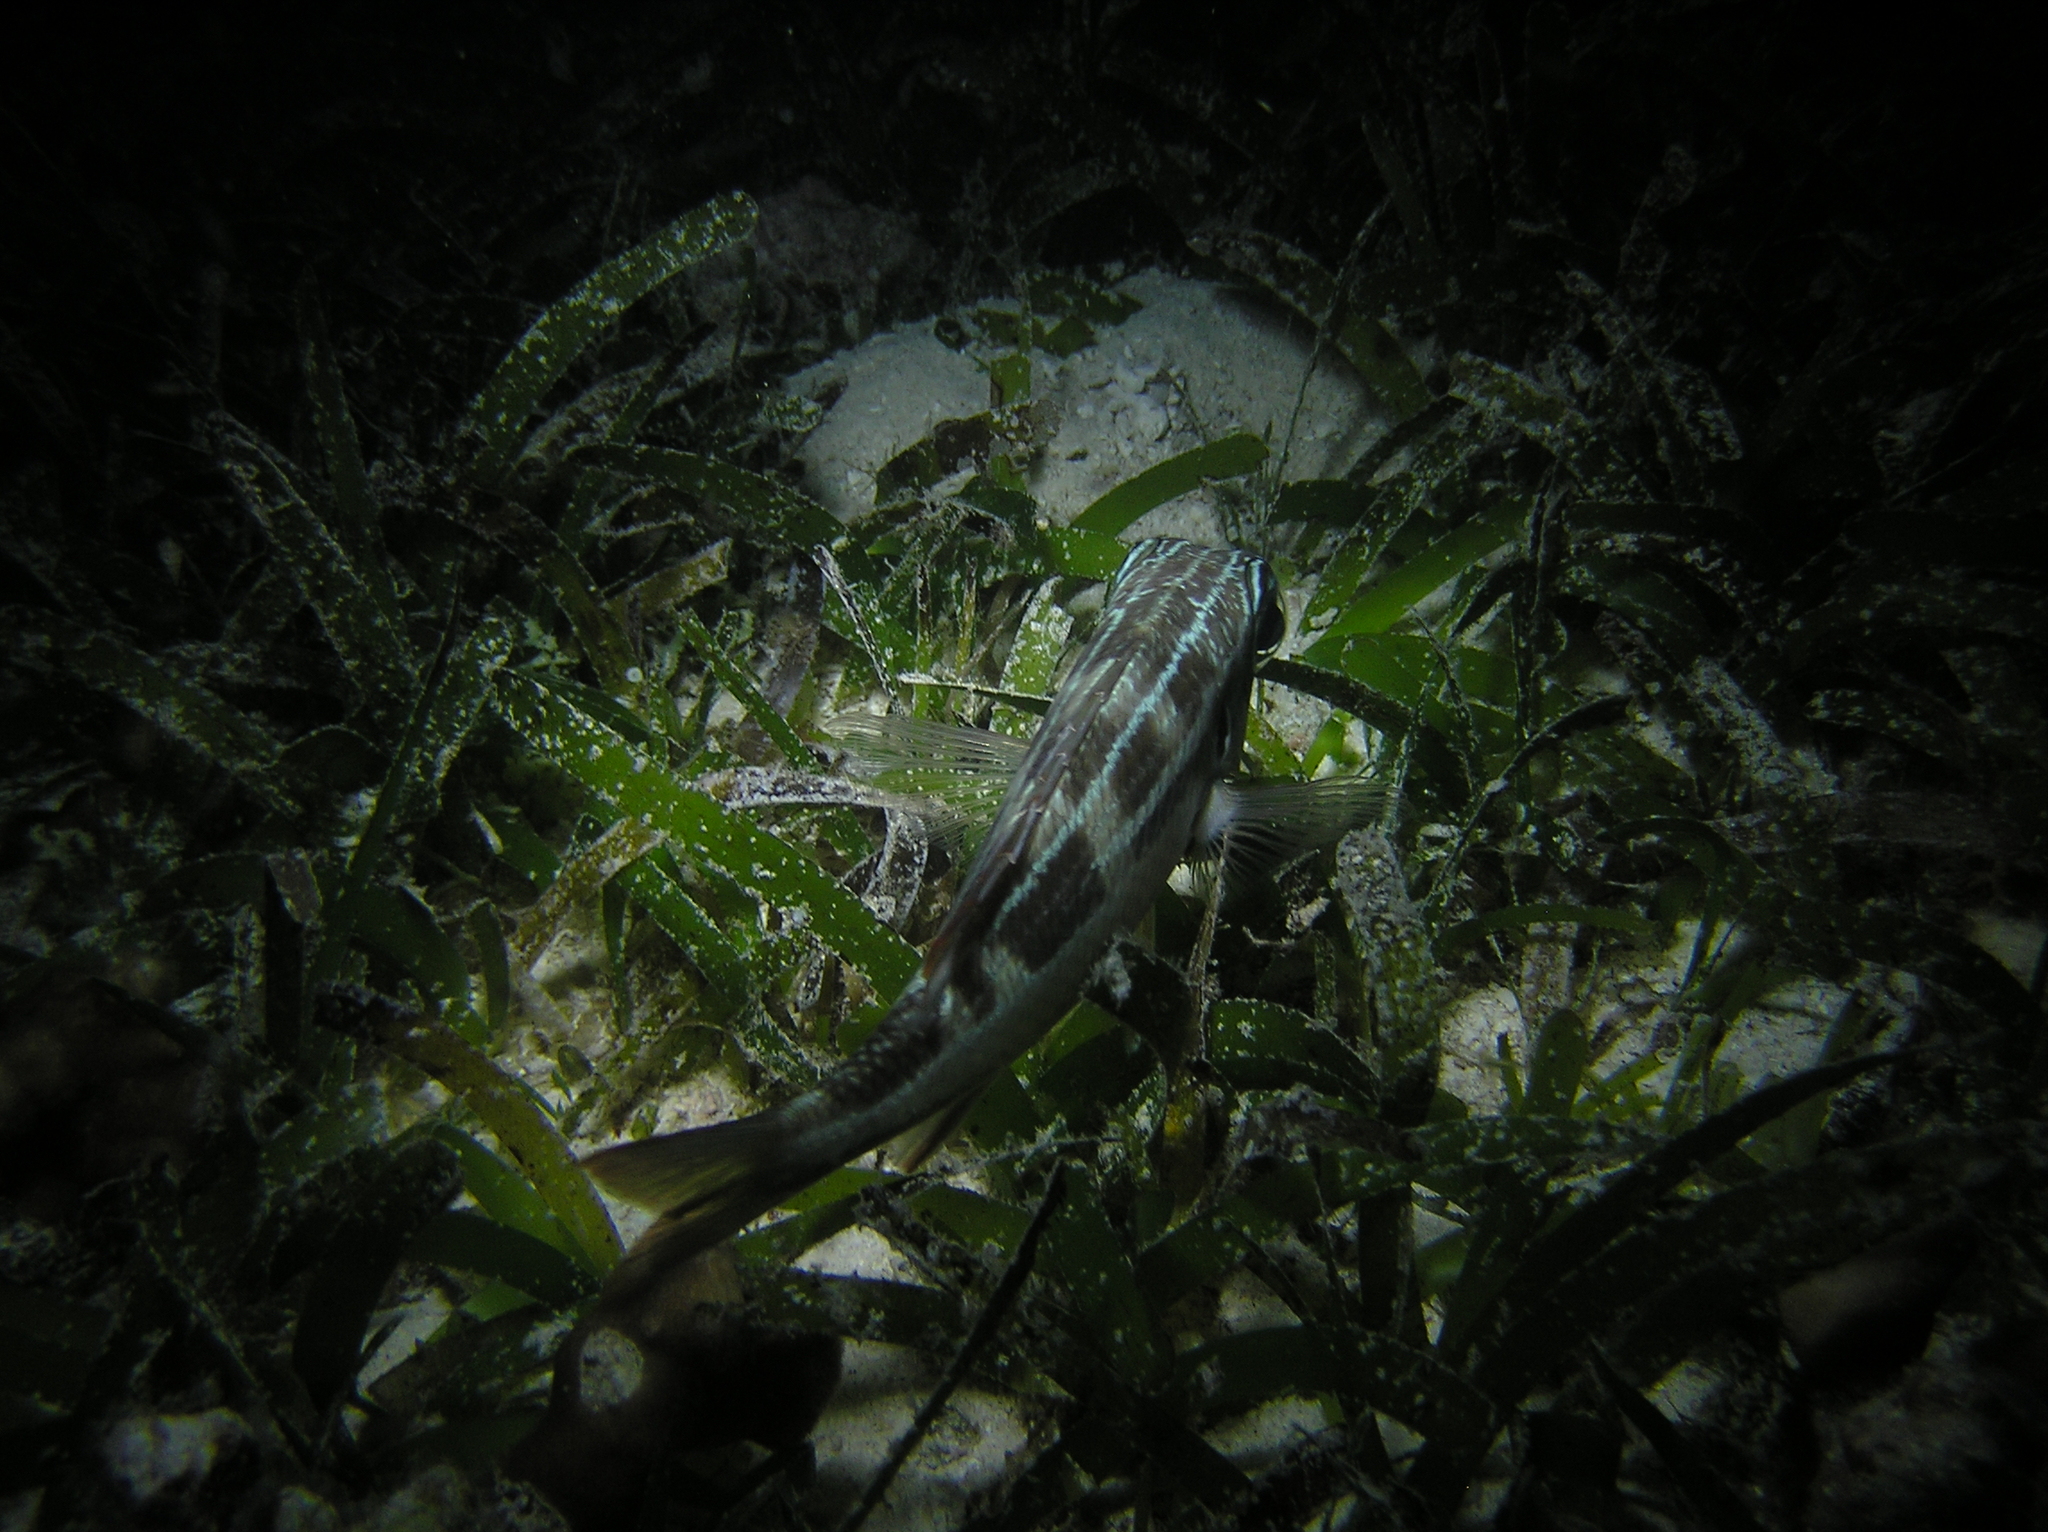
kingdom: Animalia
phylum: Chordata
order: Perciformes
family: Nemipteridae
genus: Scolopsis
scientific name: Scolopsis lineata
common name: Striped monocle bream
